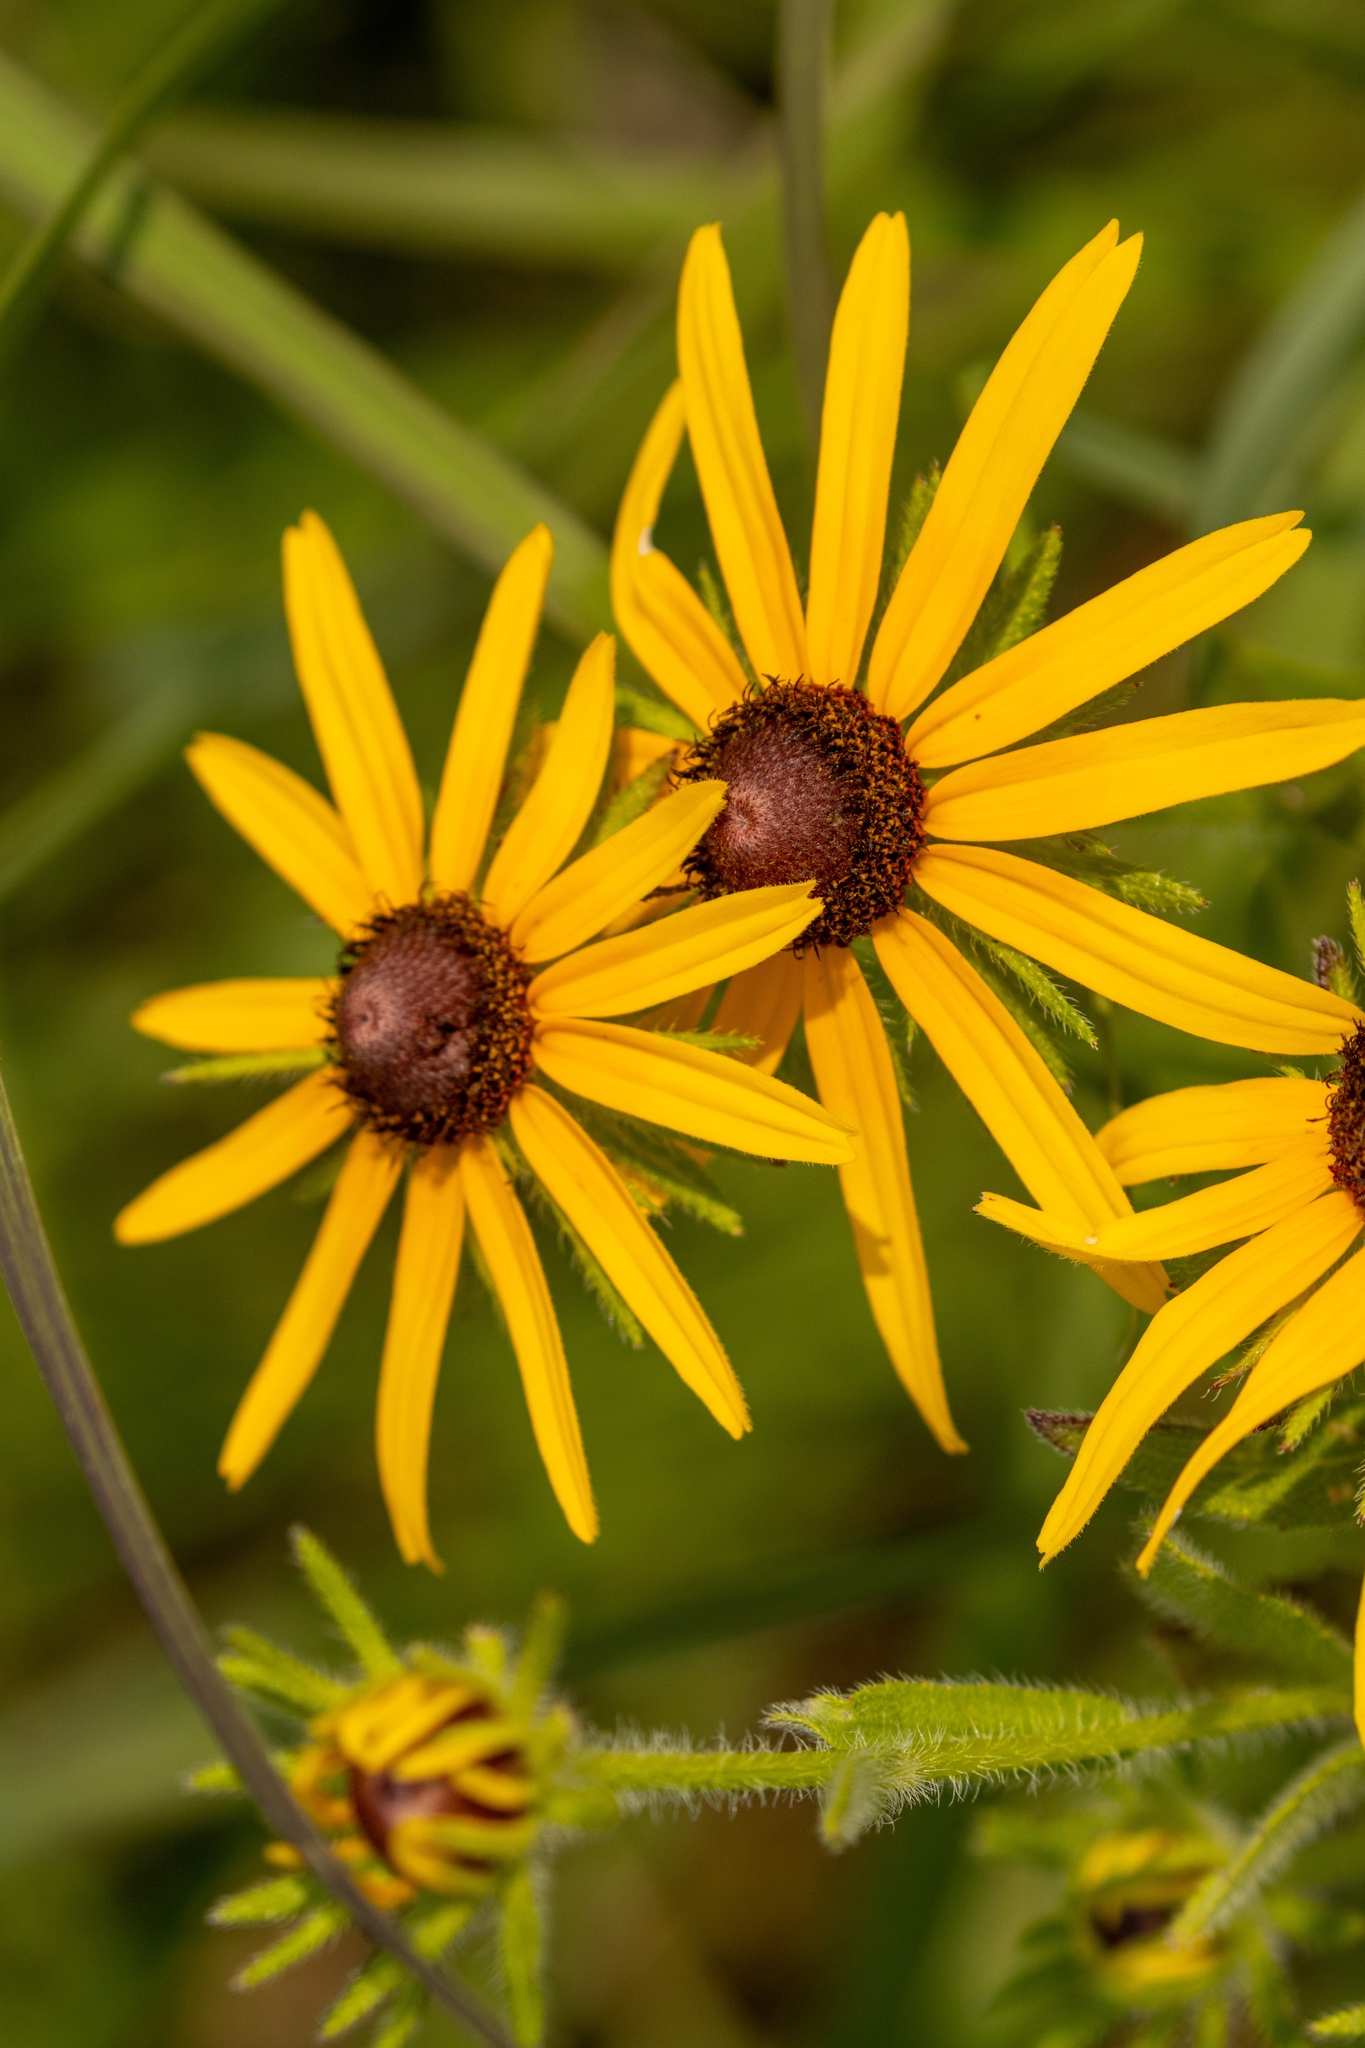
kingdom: Plantae
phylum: Tracheophyta
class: Magnoliopsida
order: Asterales
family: Asteraceae
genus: Rudbeckia
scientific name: Rudbeckia hirta
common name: Black-eyed-susan
